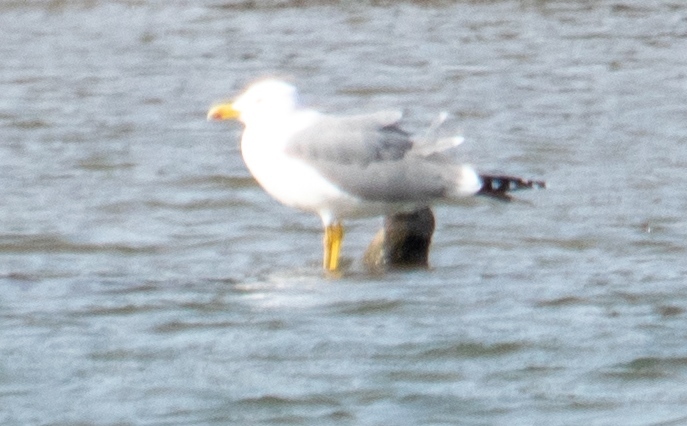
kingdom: Animalia
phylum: Chordata
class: Aves
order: Charadriiformes
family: Laridae
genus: Larus
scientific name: Larus michahellis
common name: Yellow-legged gull
